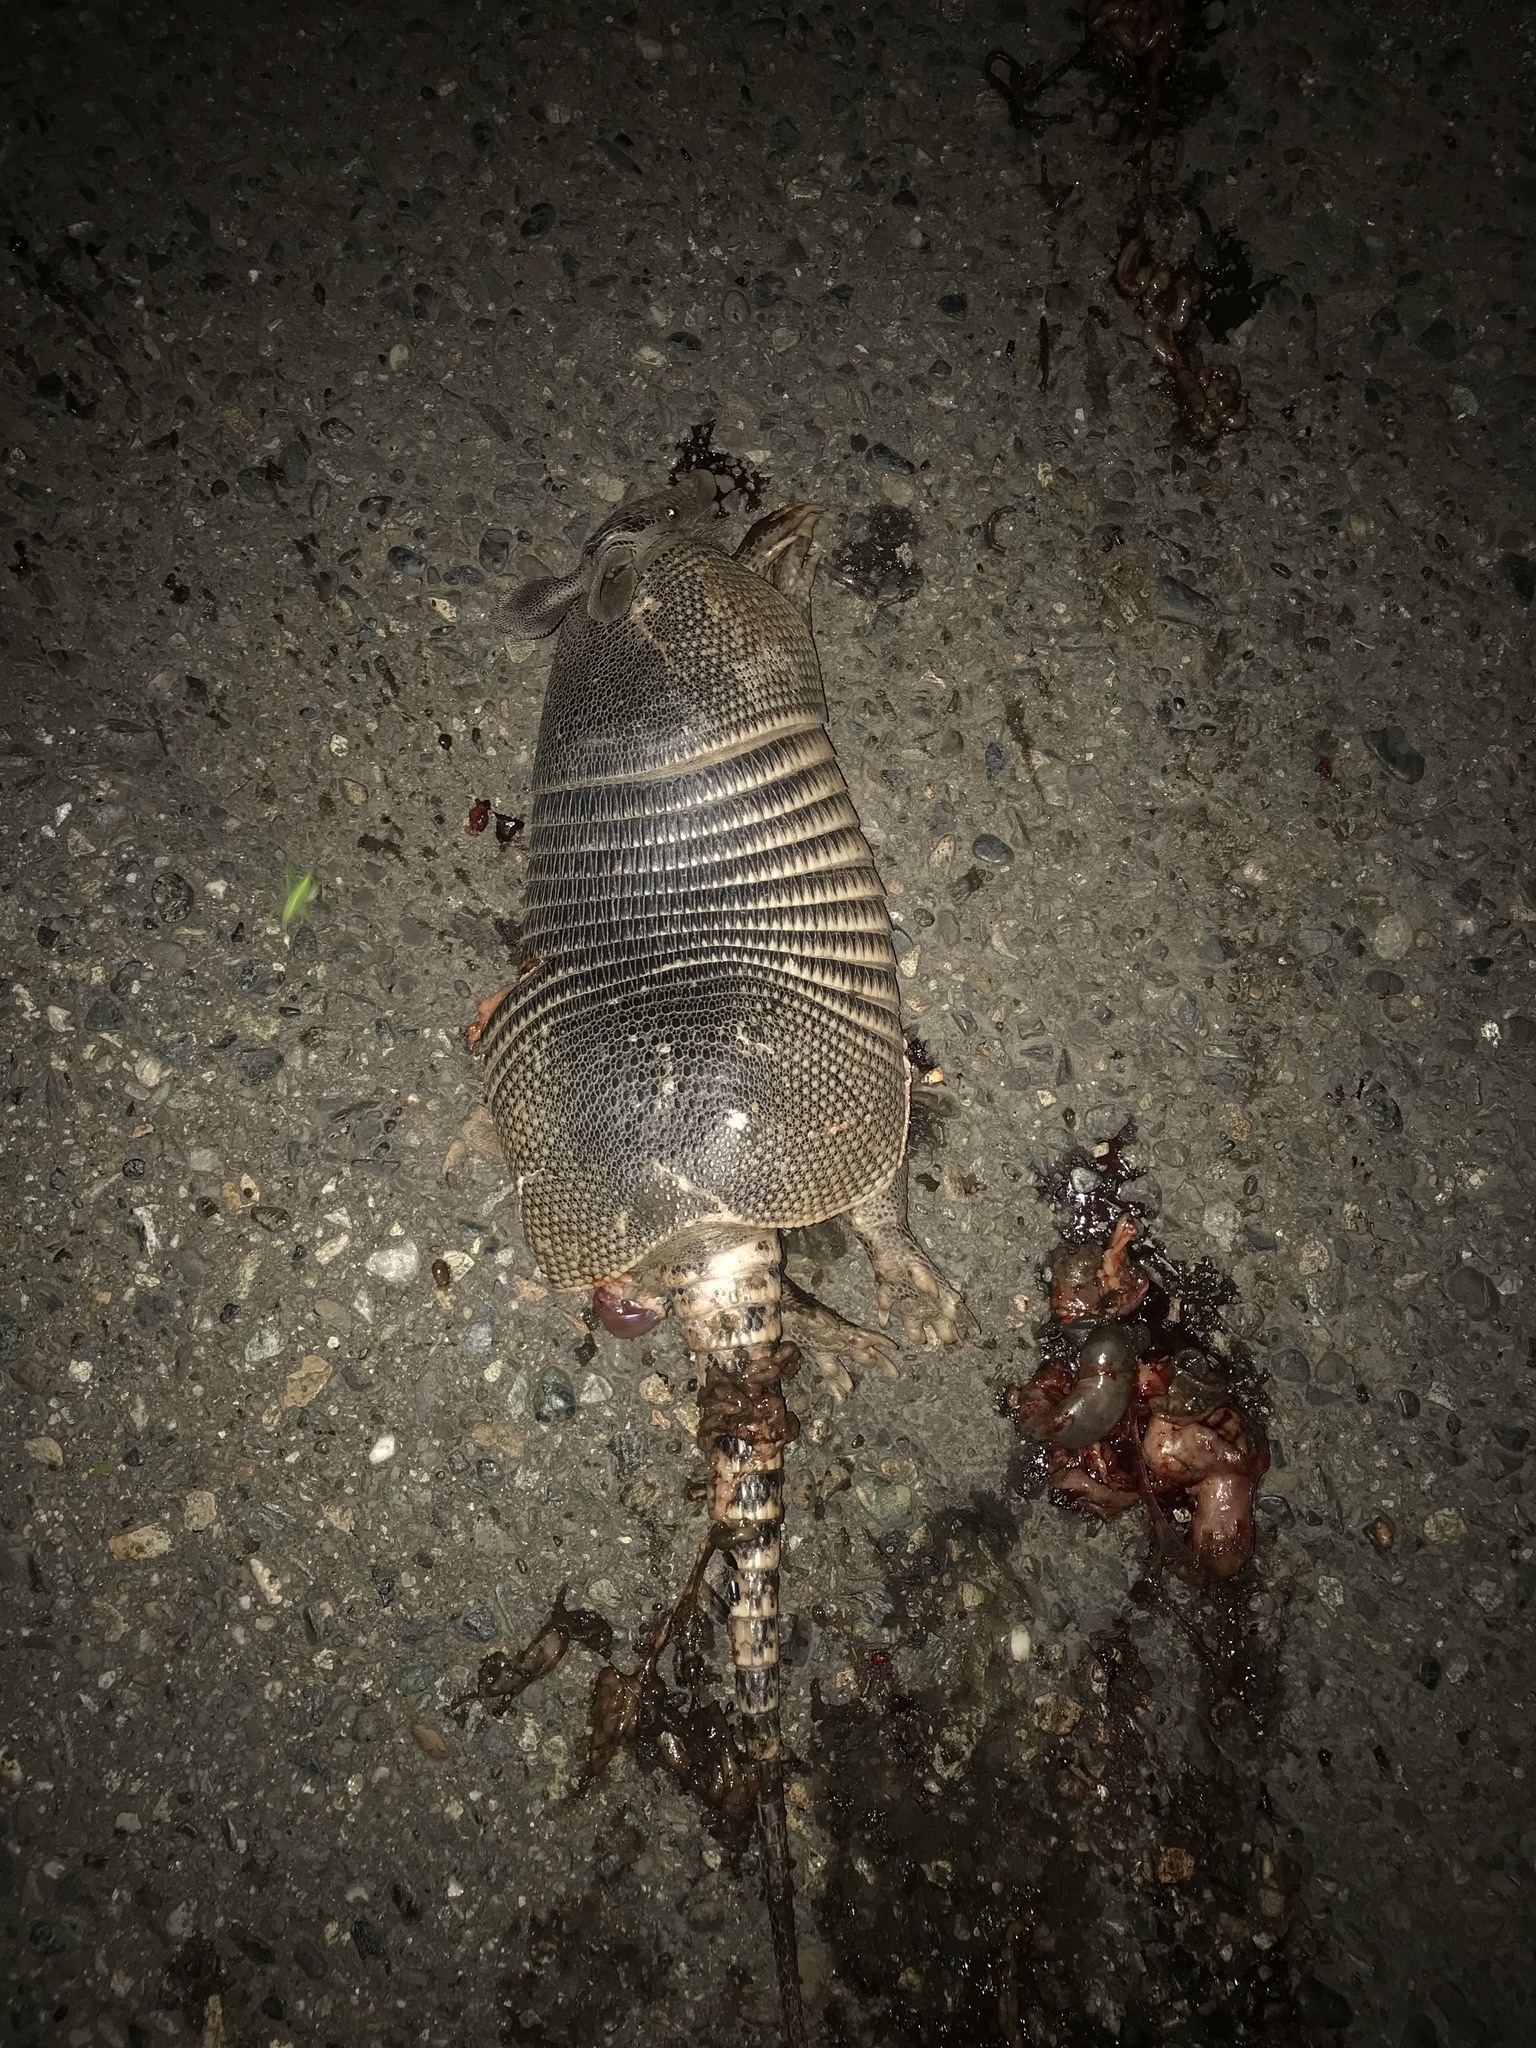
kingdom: Animalia
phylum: Chordata
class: Mammalia
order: Cingulata
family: Dasypodidae
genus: Dasypus
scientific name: Dasypus novemcinctus
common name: Nine-banded armadillo
